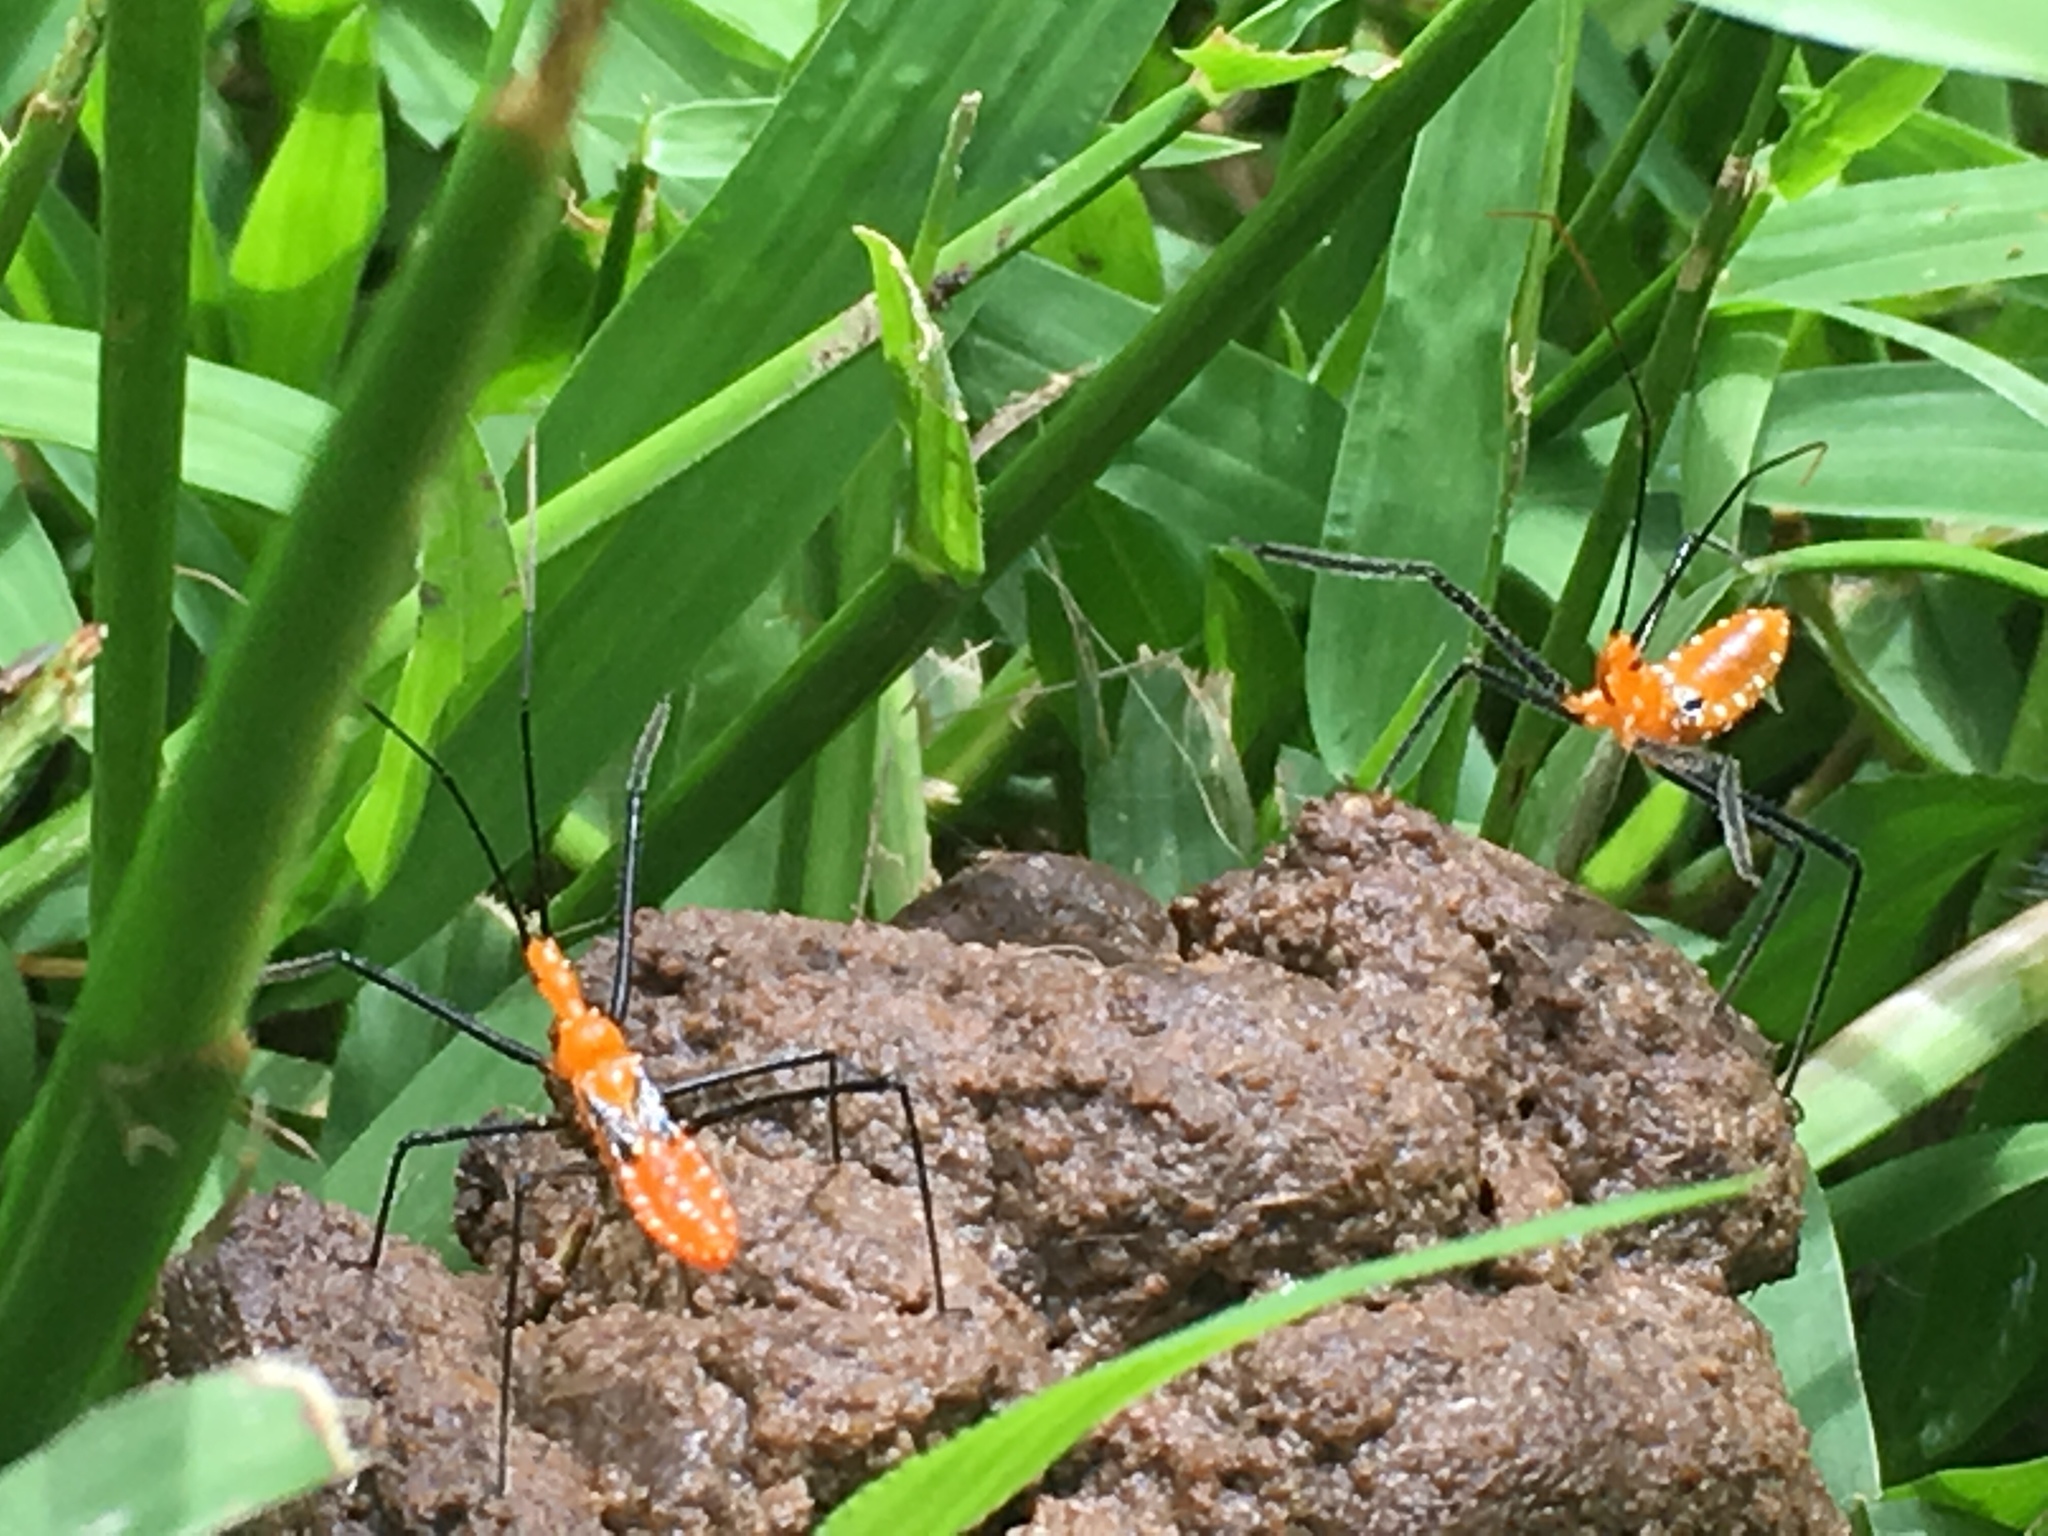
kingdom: Animalia
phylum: Arthropoda
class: Insecta
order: Hemiptera
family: Reduviidae
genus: Zelus
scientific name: Zelus longipes
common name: Milkweed assassin bug
